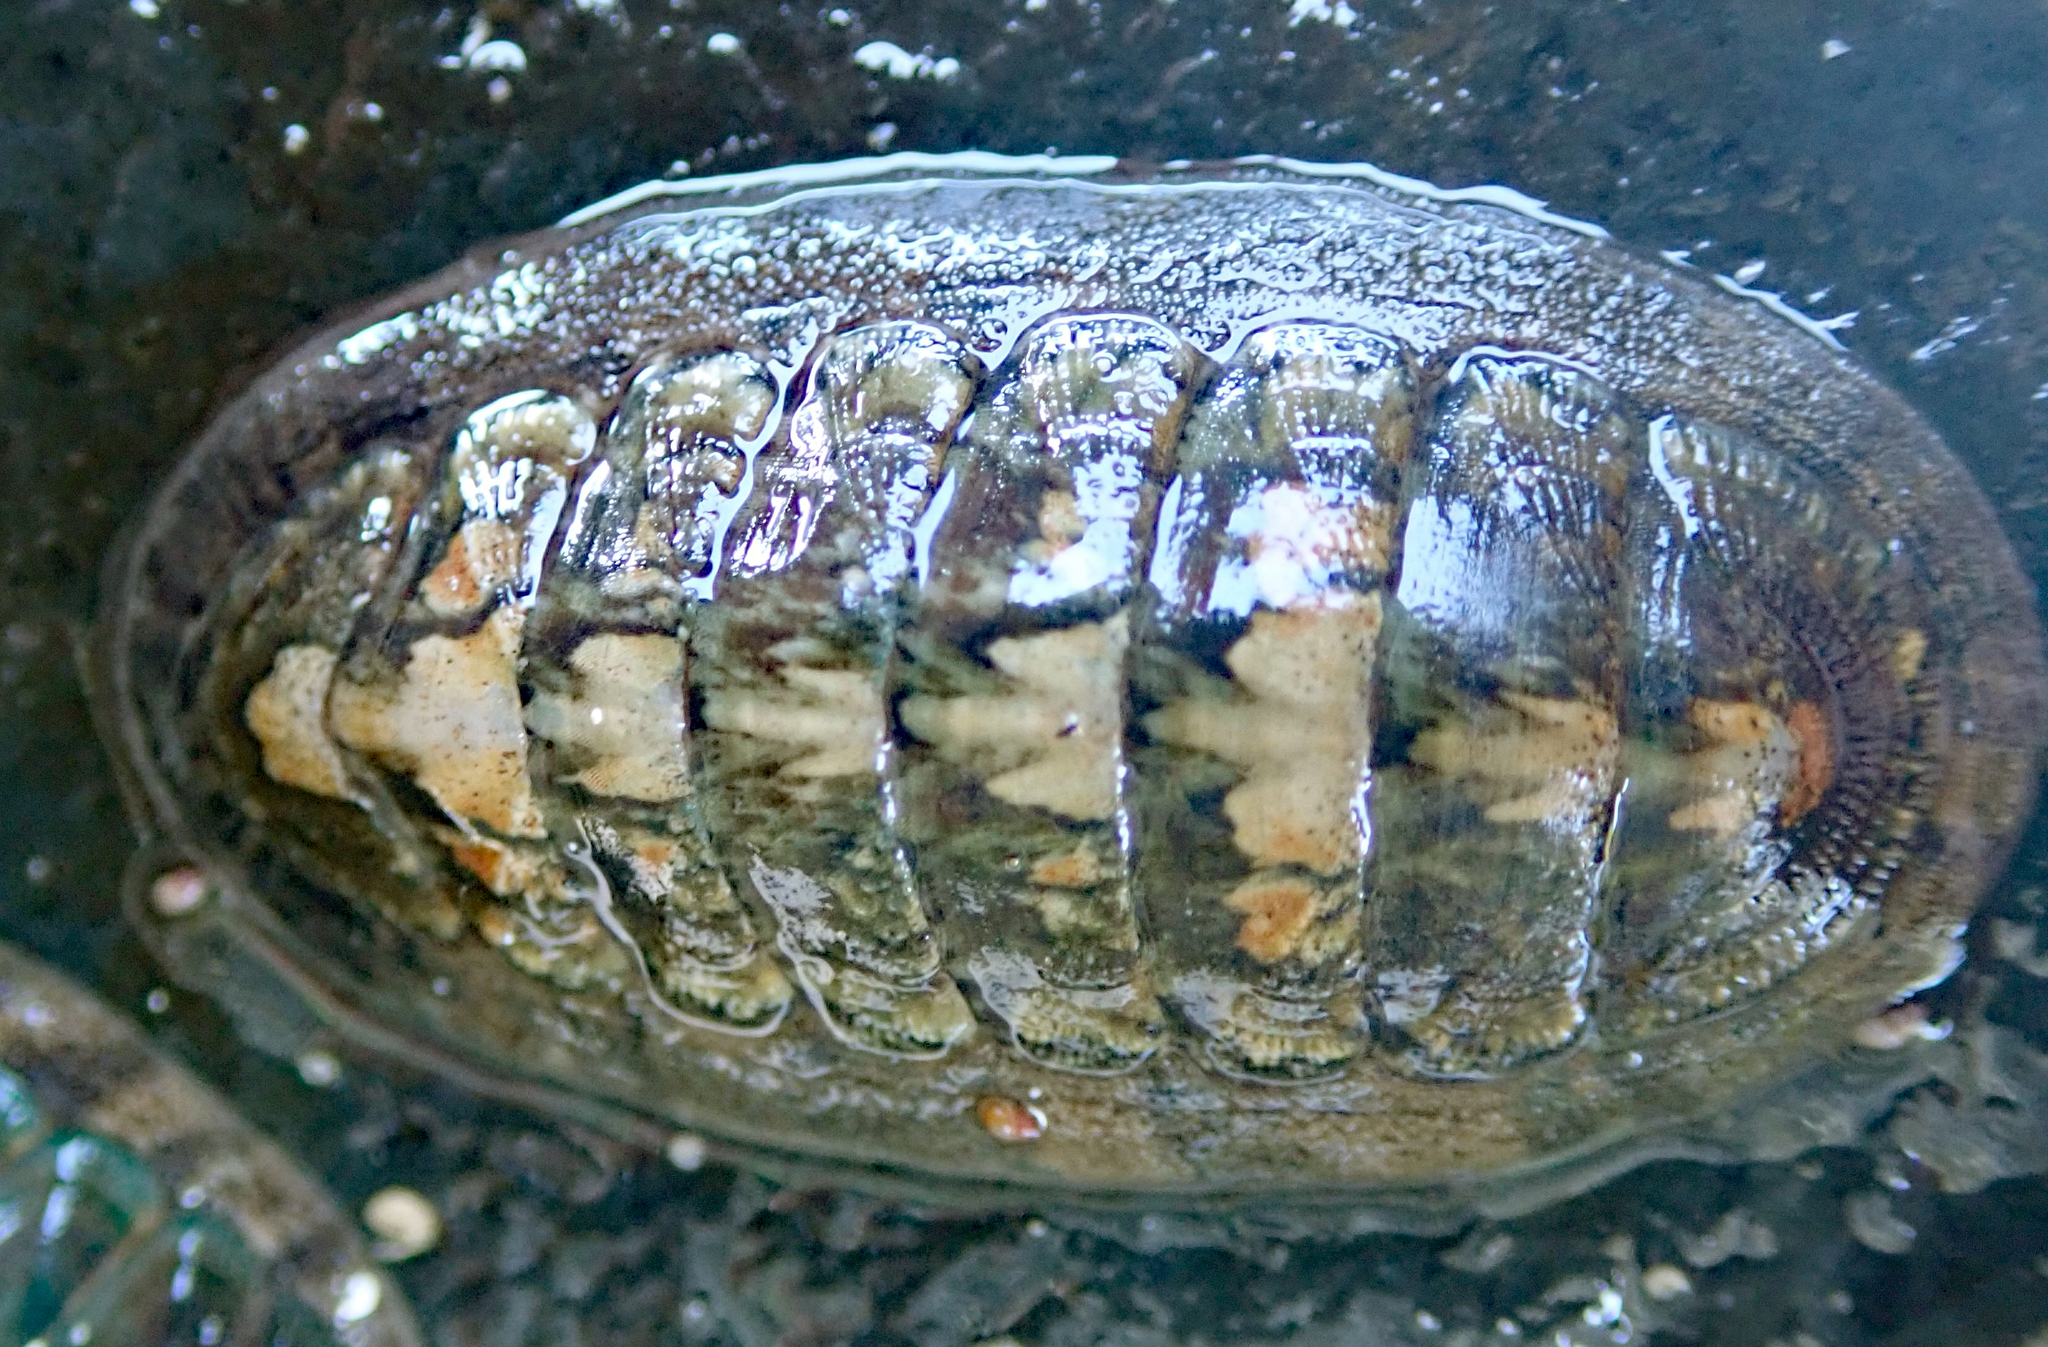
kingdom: Animalia
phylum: Mollusca
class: Polyplacophora
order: Chitonida
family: Ischnochitonidae
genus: Ischnochiton
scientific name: Ischnochiton maorianus
